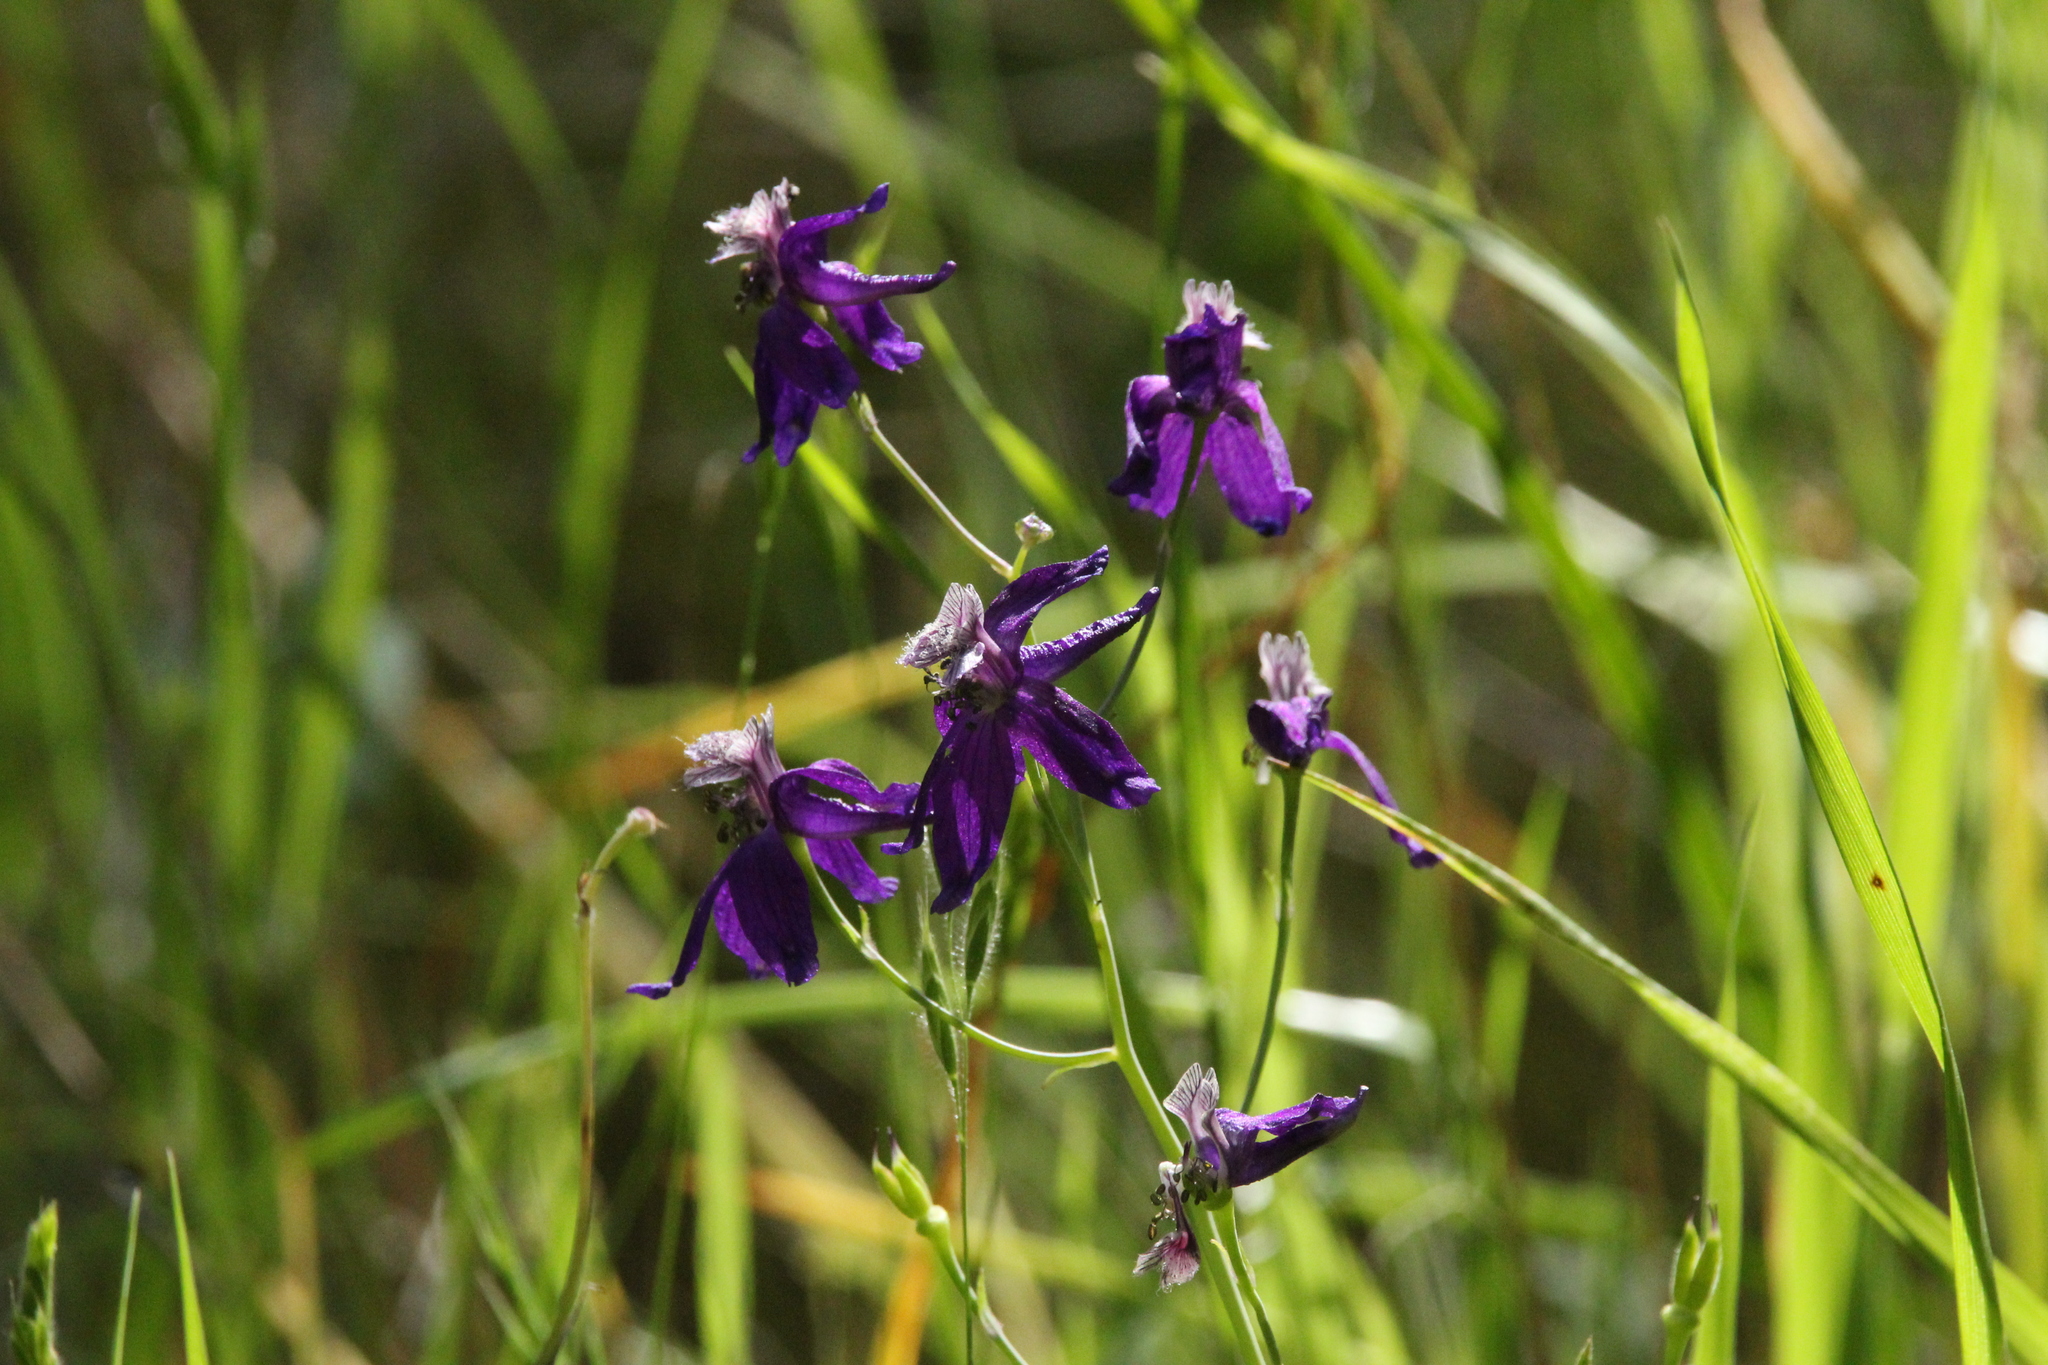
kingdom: Plantae
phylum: Tracheophyta
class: Magnoliopsida
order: Ranunculales
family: Ranunculaceae
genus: Delphinium
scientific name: Delphinium patens
